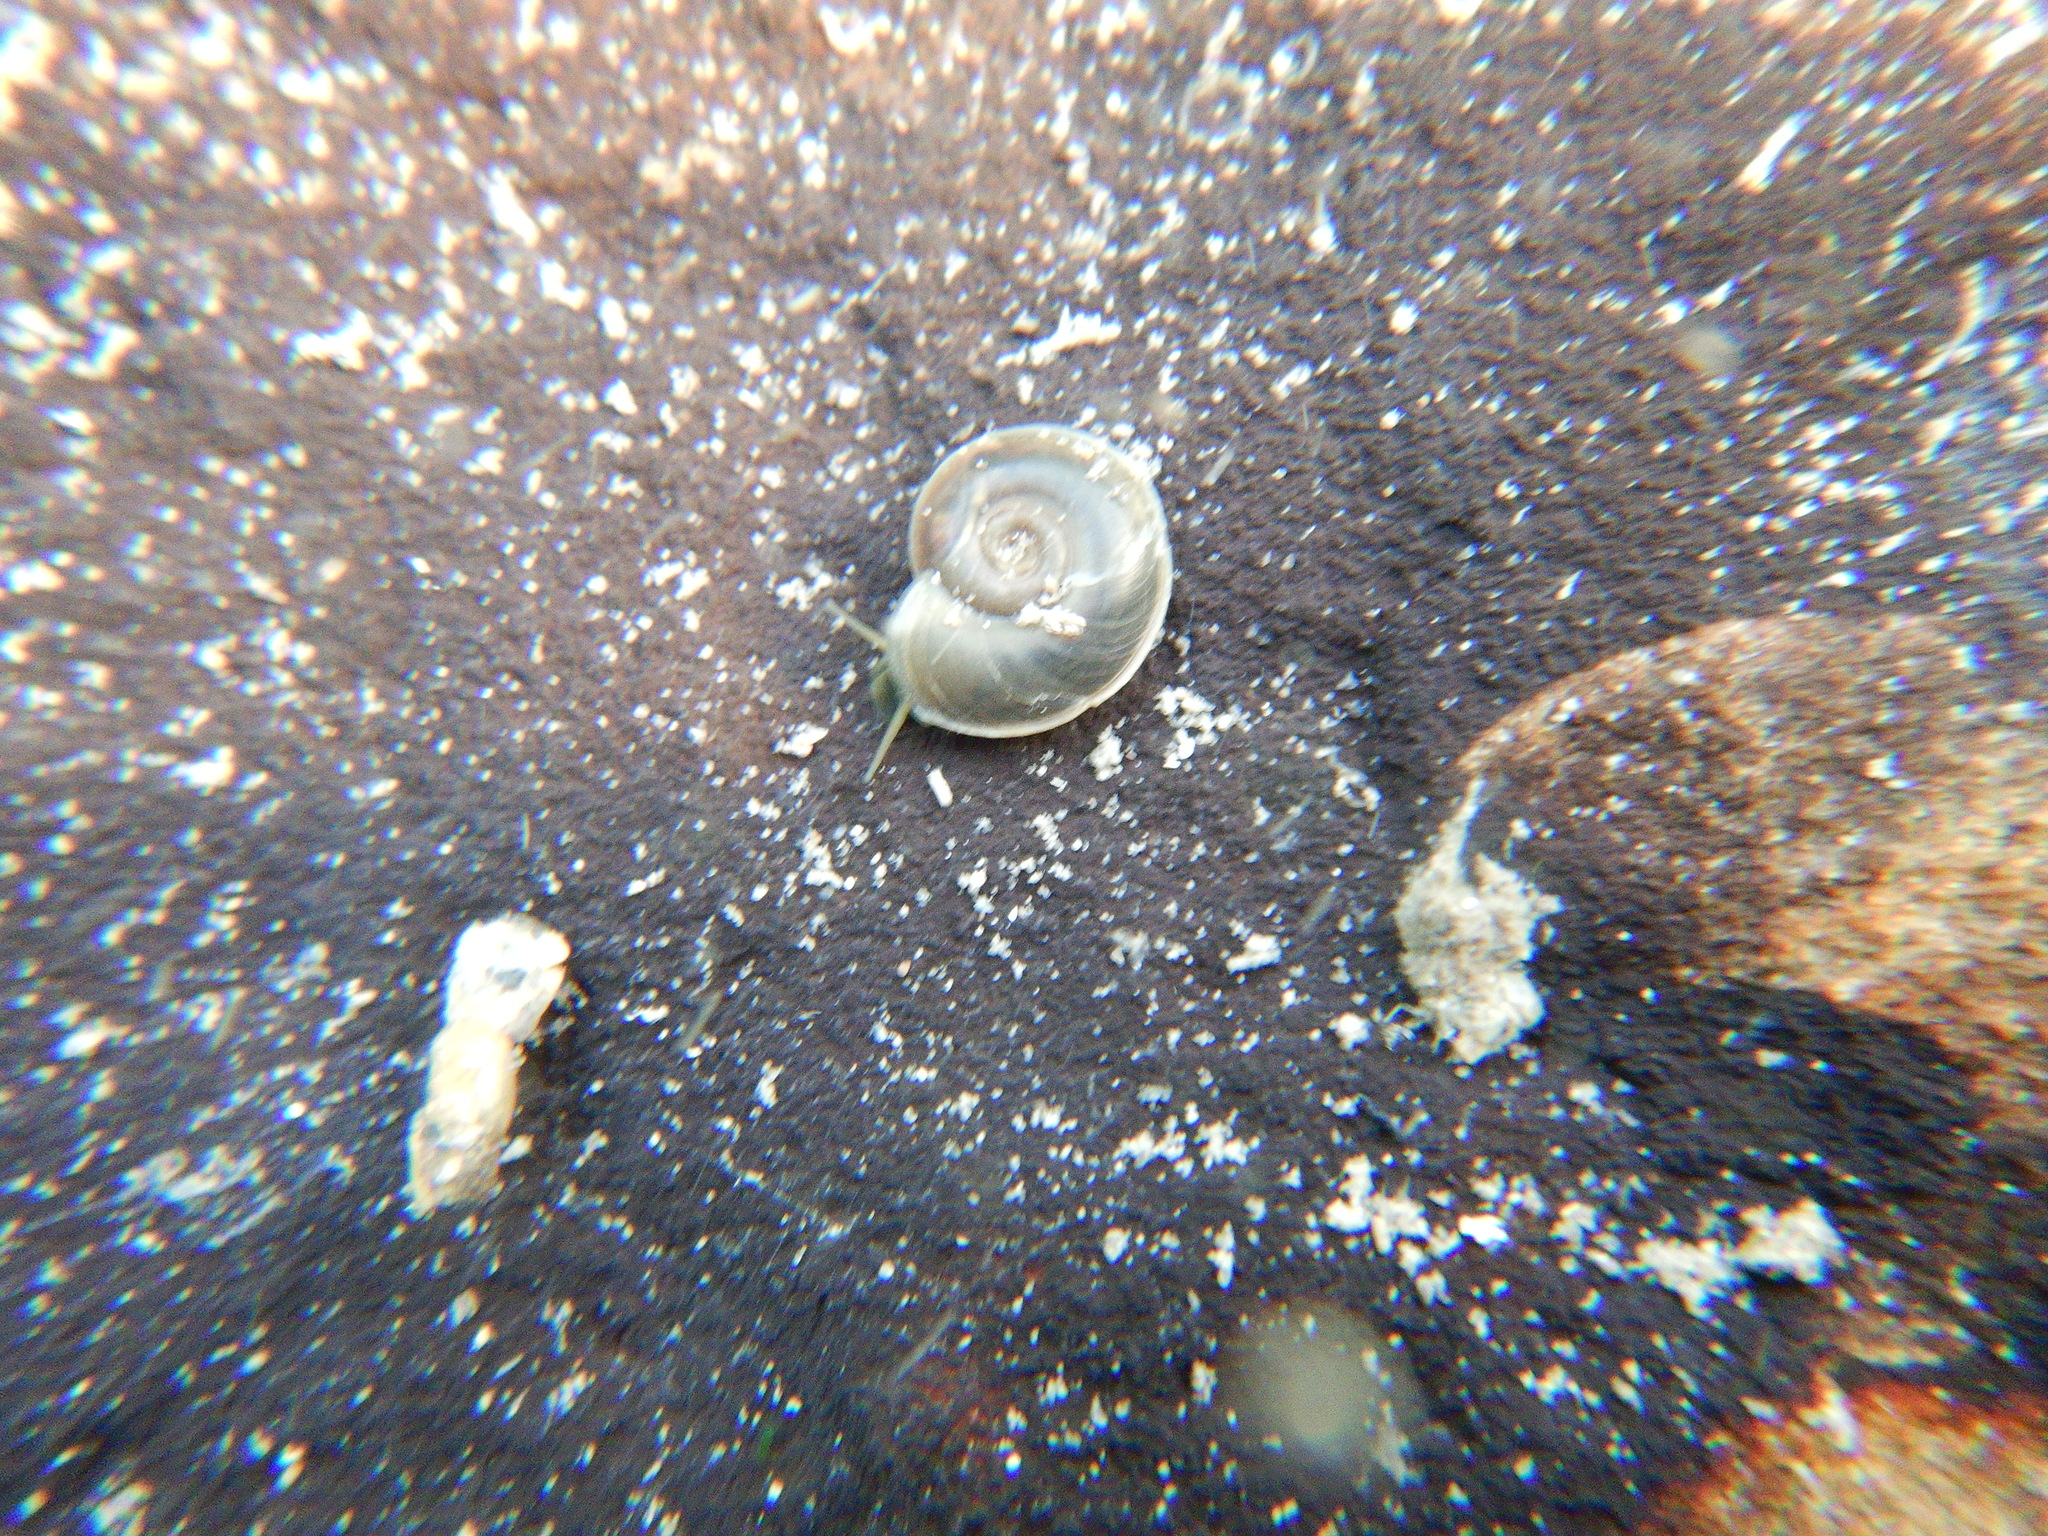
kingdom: Animalia
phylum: Mollusca
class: Gastropoda
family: Planorbidae
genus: Planorbis
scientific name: Planorbis carinatus
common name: Keeled ramshorn
